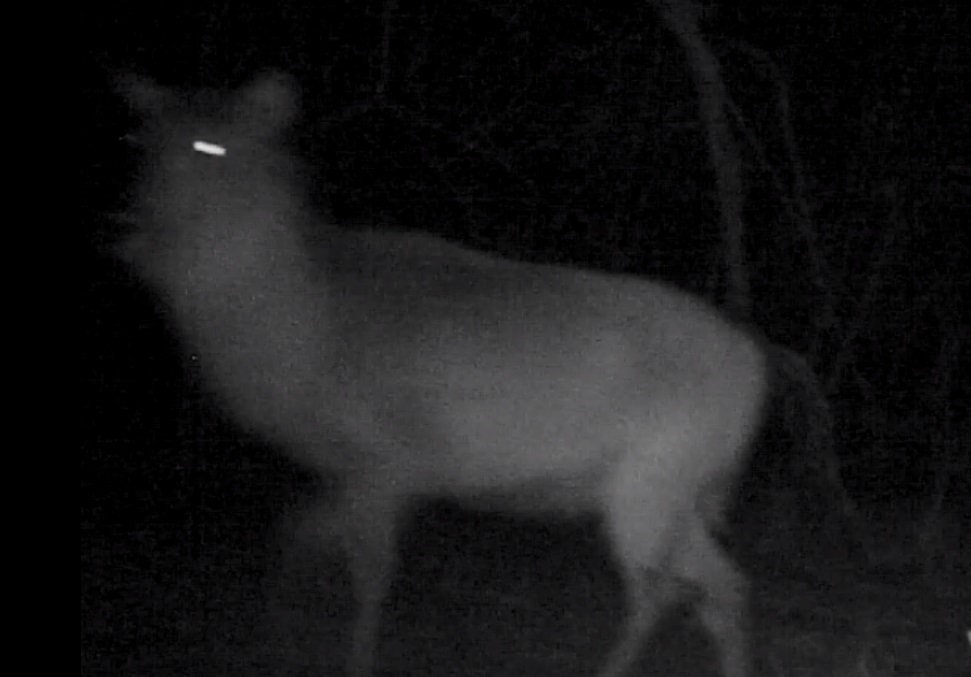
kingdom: Animalia
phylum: Chordata
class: Mammalia
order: Artiodactyla
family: Bovidae
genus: Kobus
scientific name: Kobus ellipsiprymnus
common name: Waterbuck
